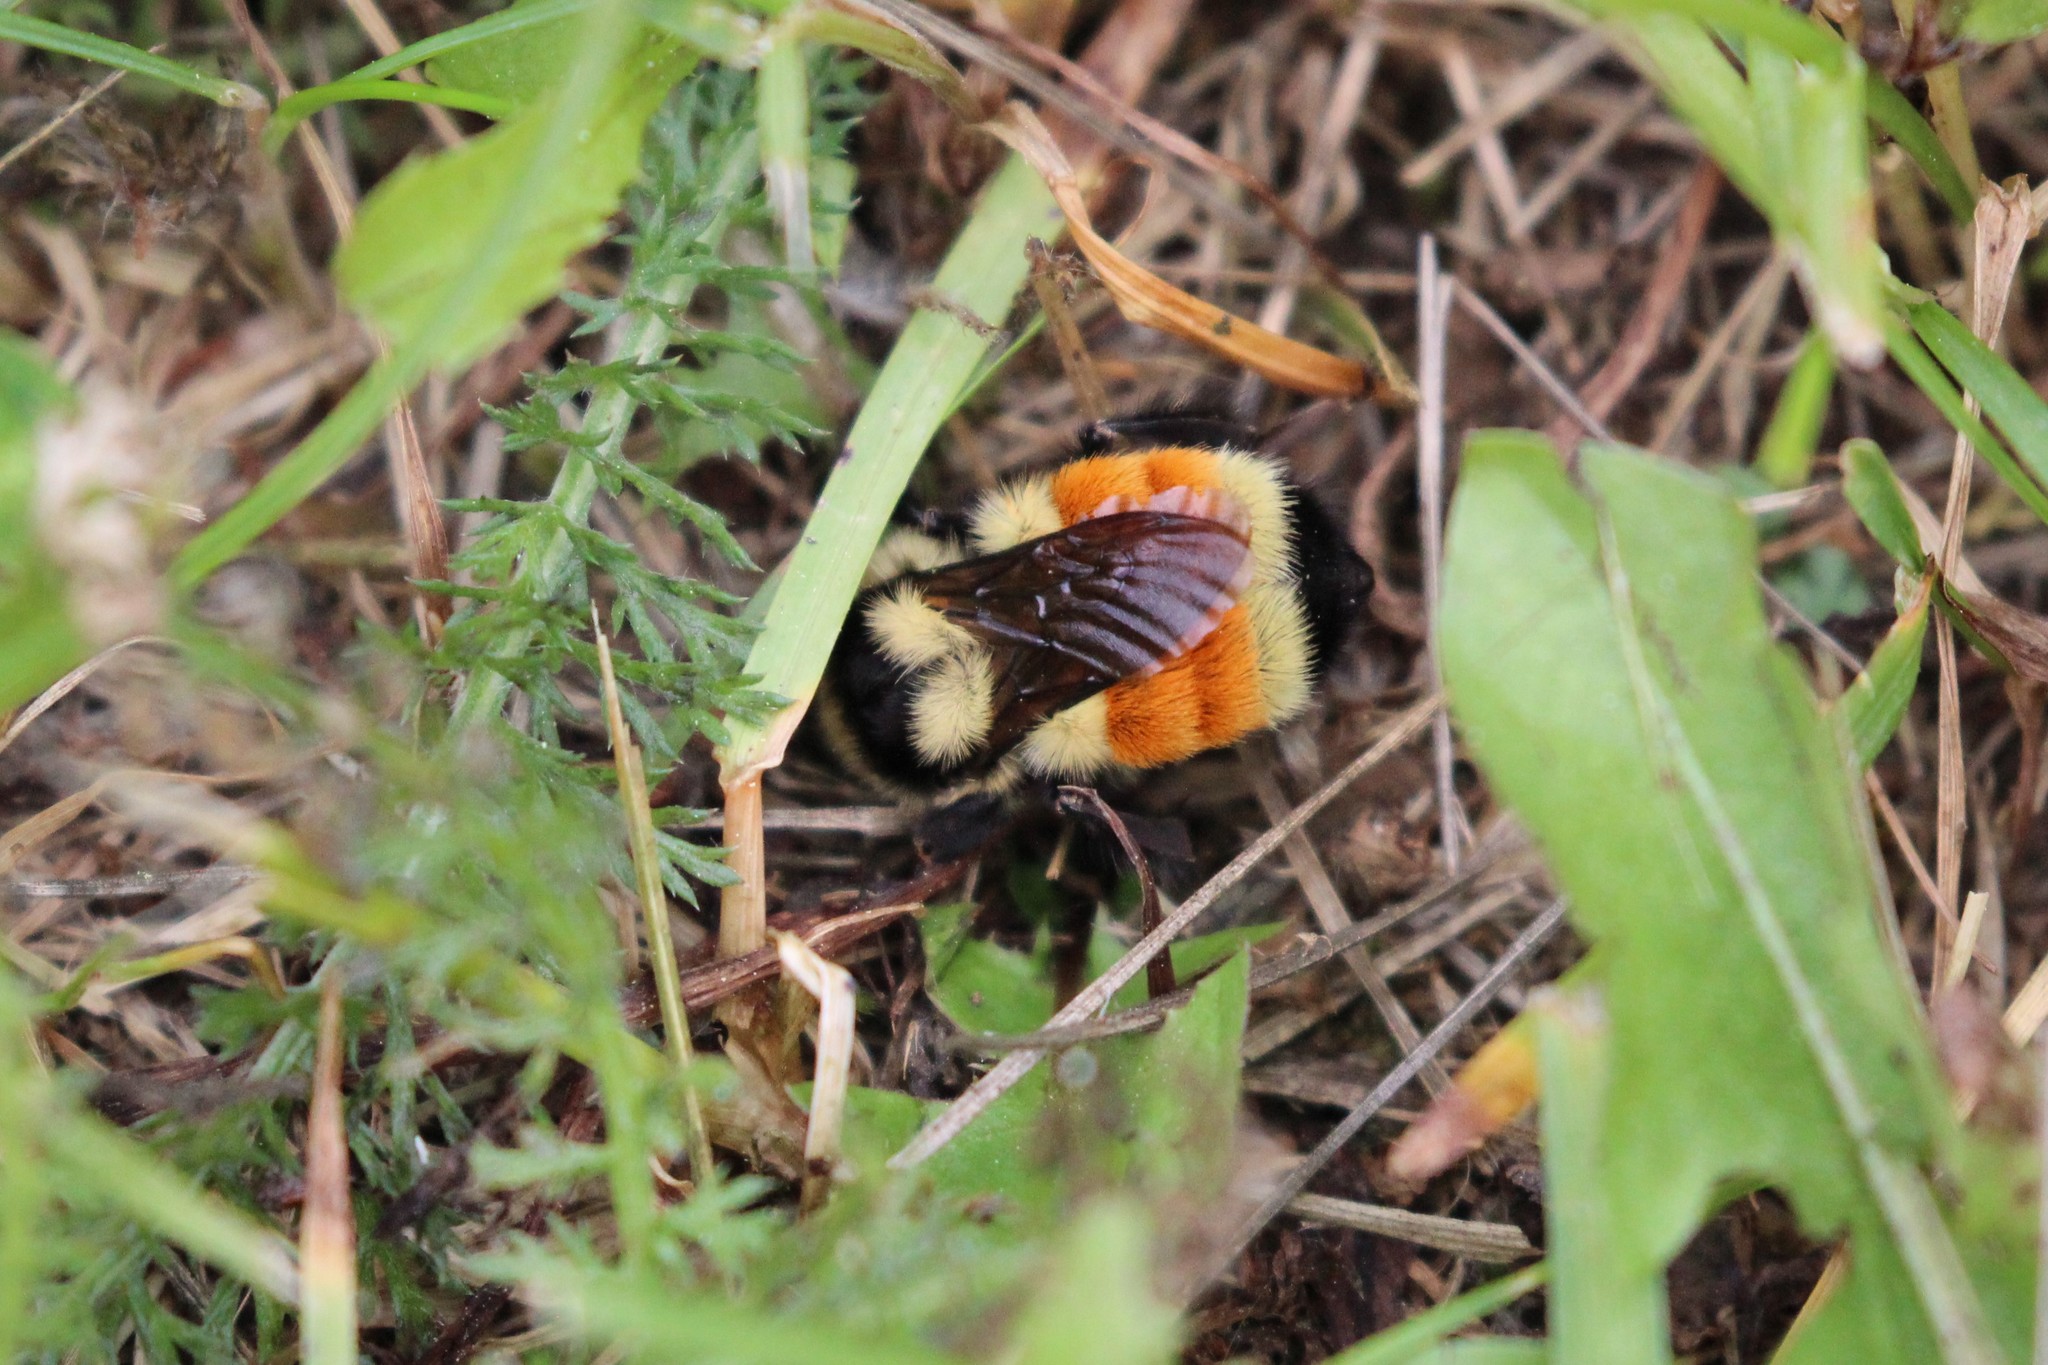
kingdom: Animalia
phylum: Arthropoda
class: Insecta
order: Hymenoptera
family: Apidae
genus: Bombus
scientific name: Bombus ternarius
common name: Tri-colored bumble bee
